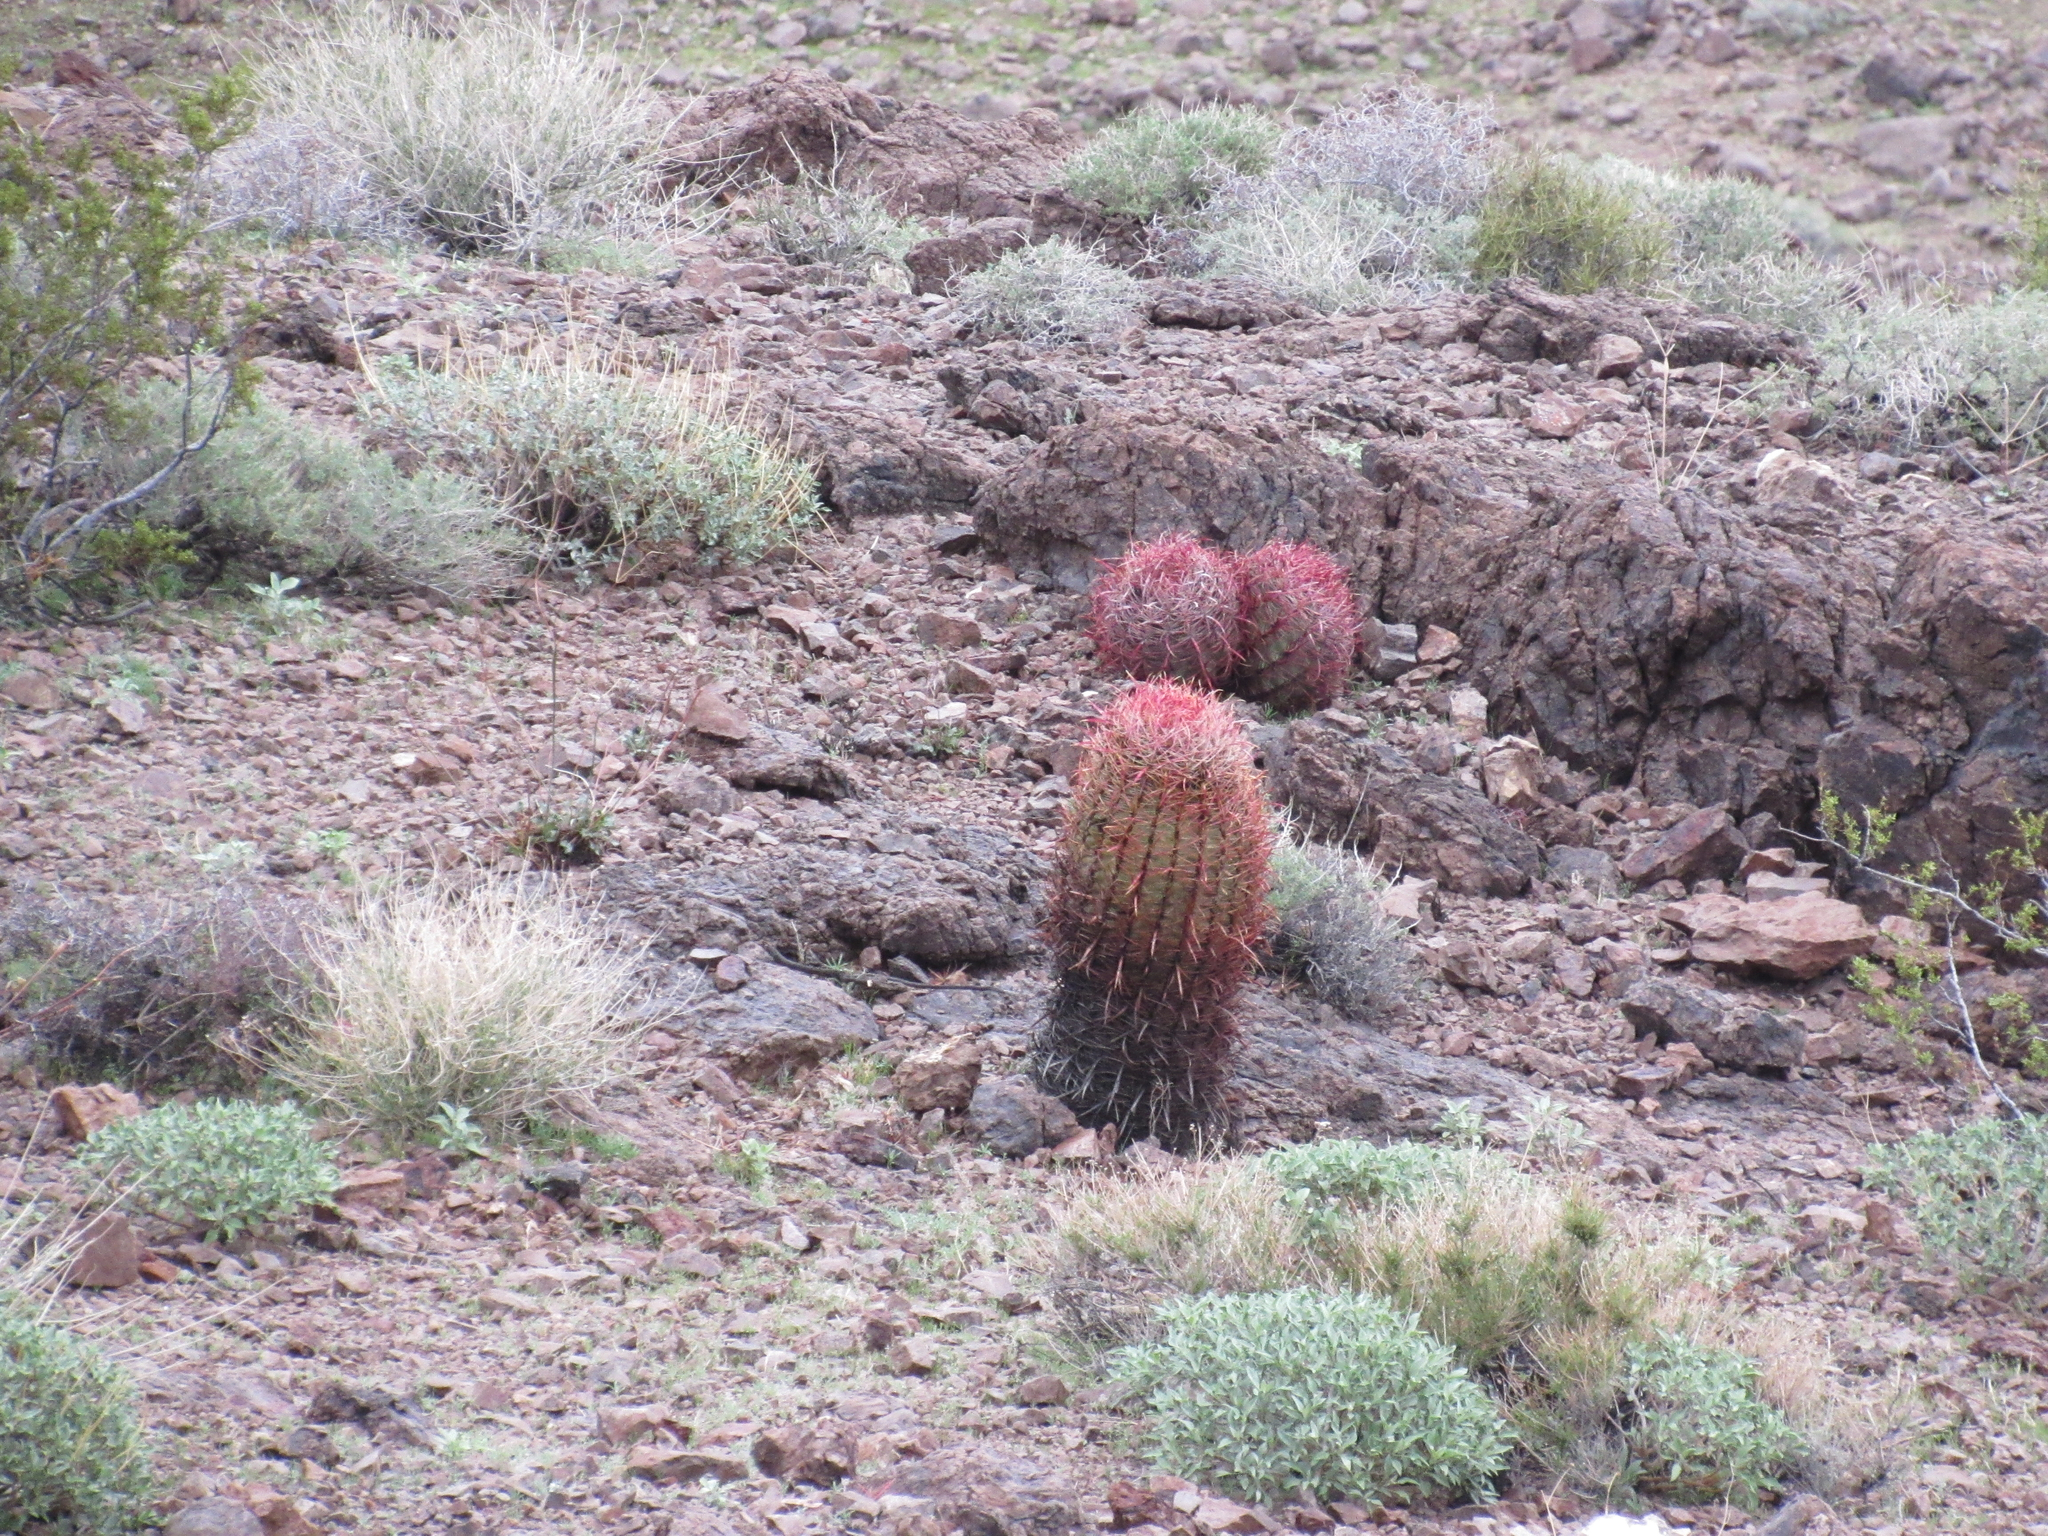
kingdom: Plantae
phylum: Tracheophyta
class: Magnoliopsida
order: Caryophyllales
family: Cactaceae
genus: Ferocactus
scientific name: Ferocactus cylindraceus
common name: California barrel cactus
